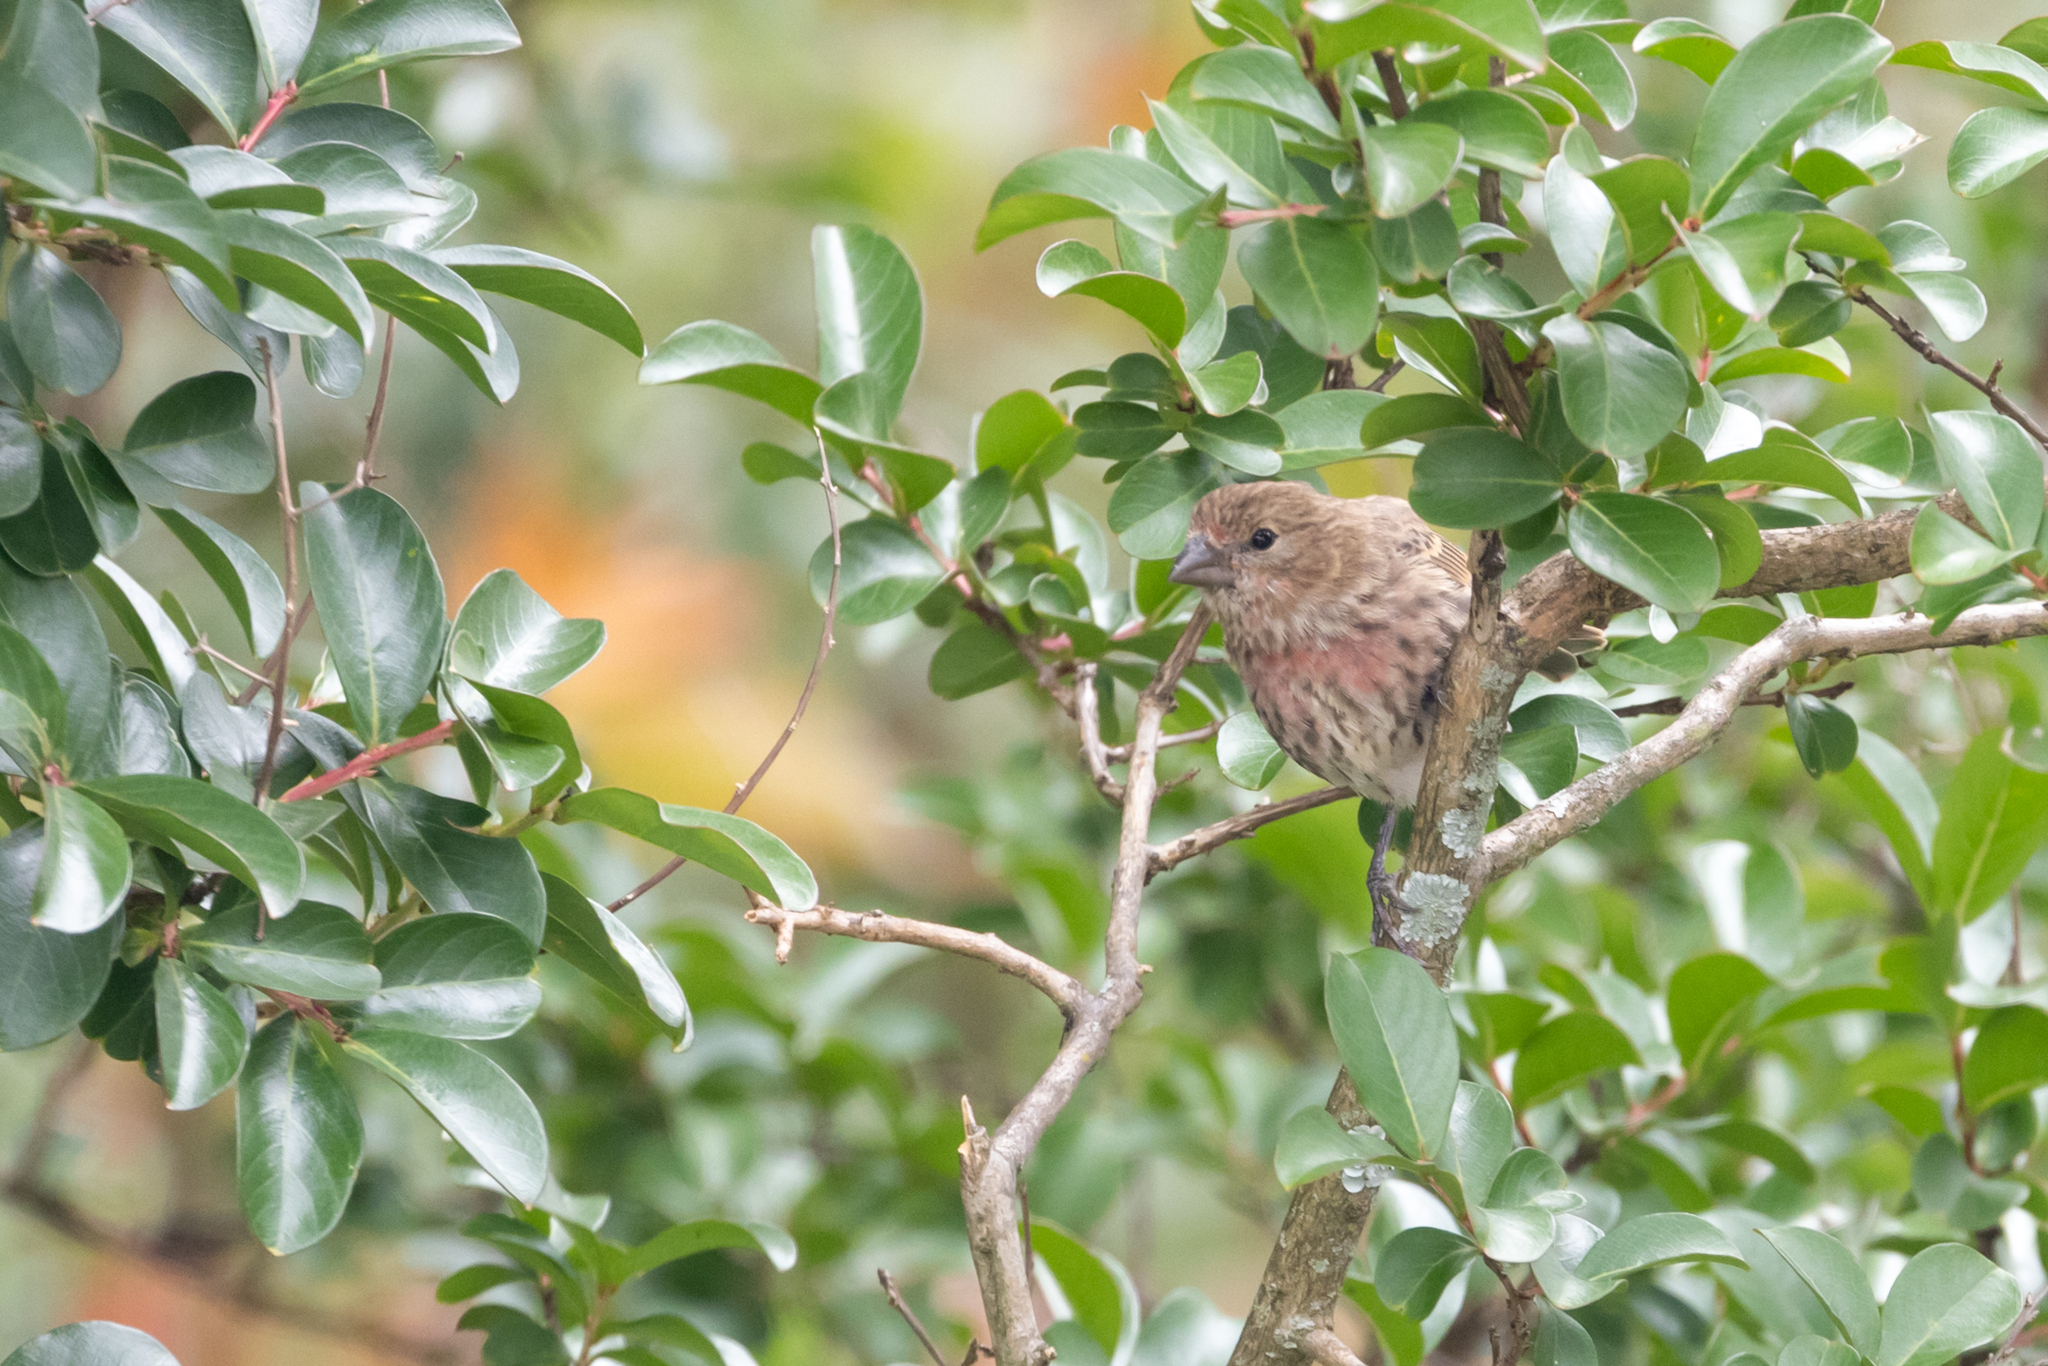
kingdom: Animalia
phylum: Chordata
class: Aves
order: Passeriformes
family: Fringillidae
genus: Haemorhous
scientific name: Haemorhous mexicanus
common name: House finch
